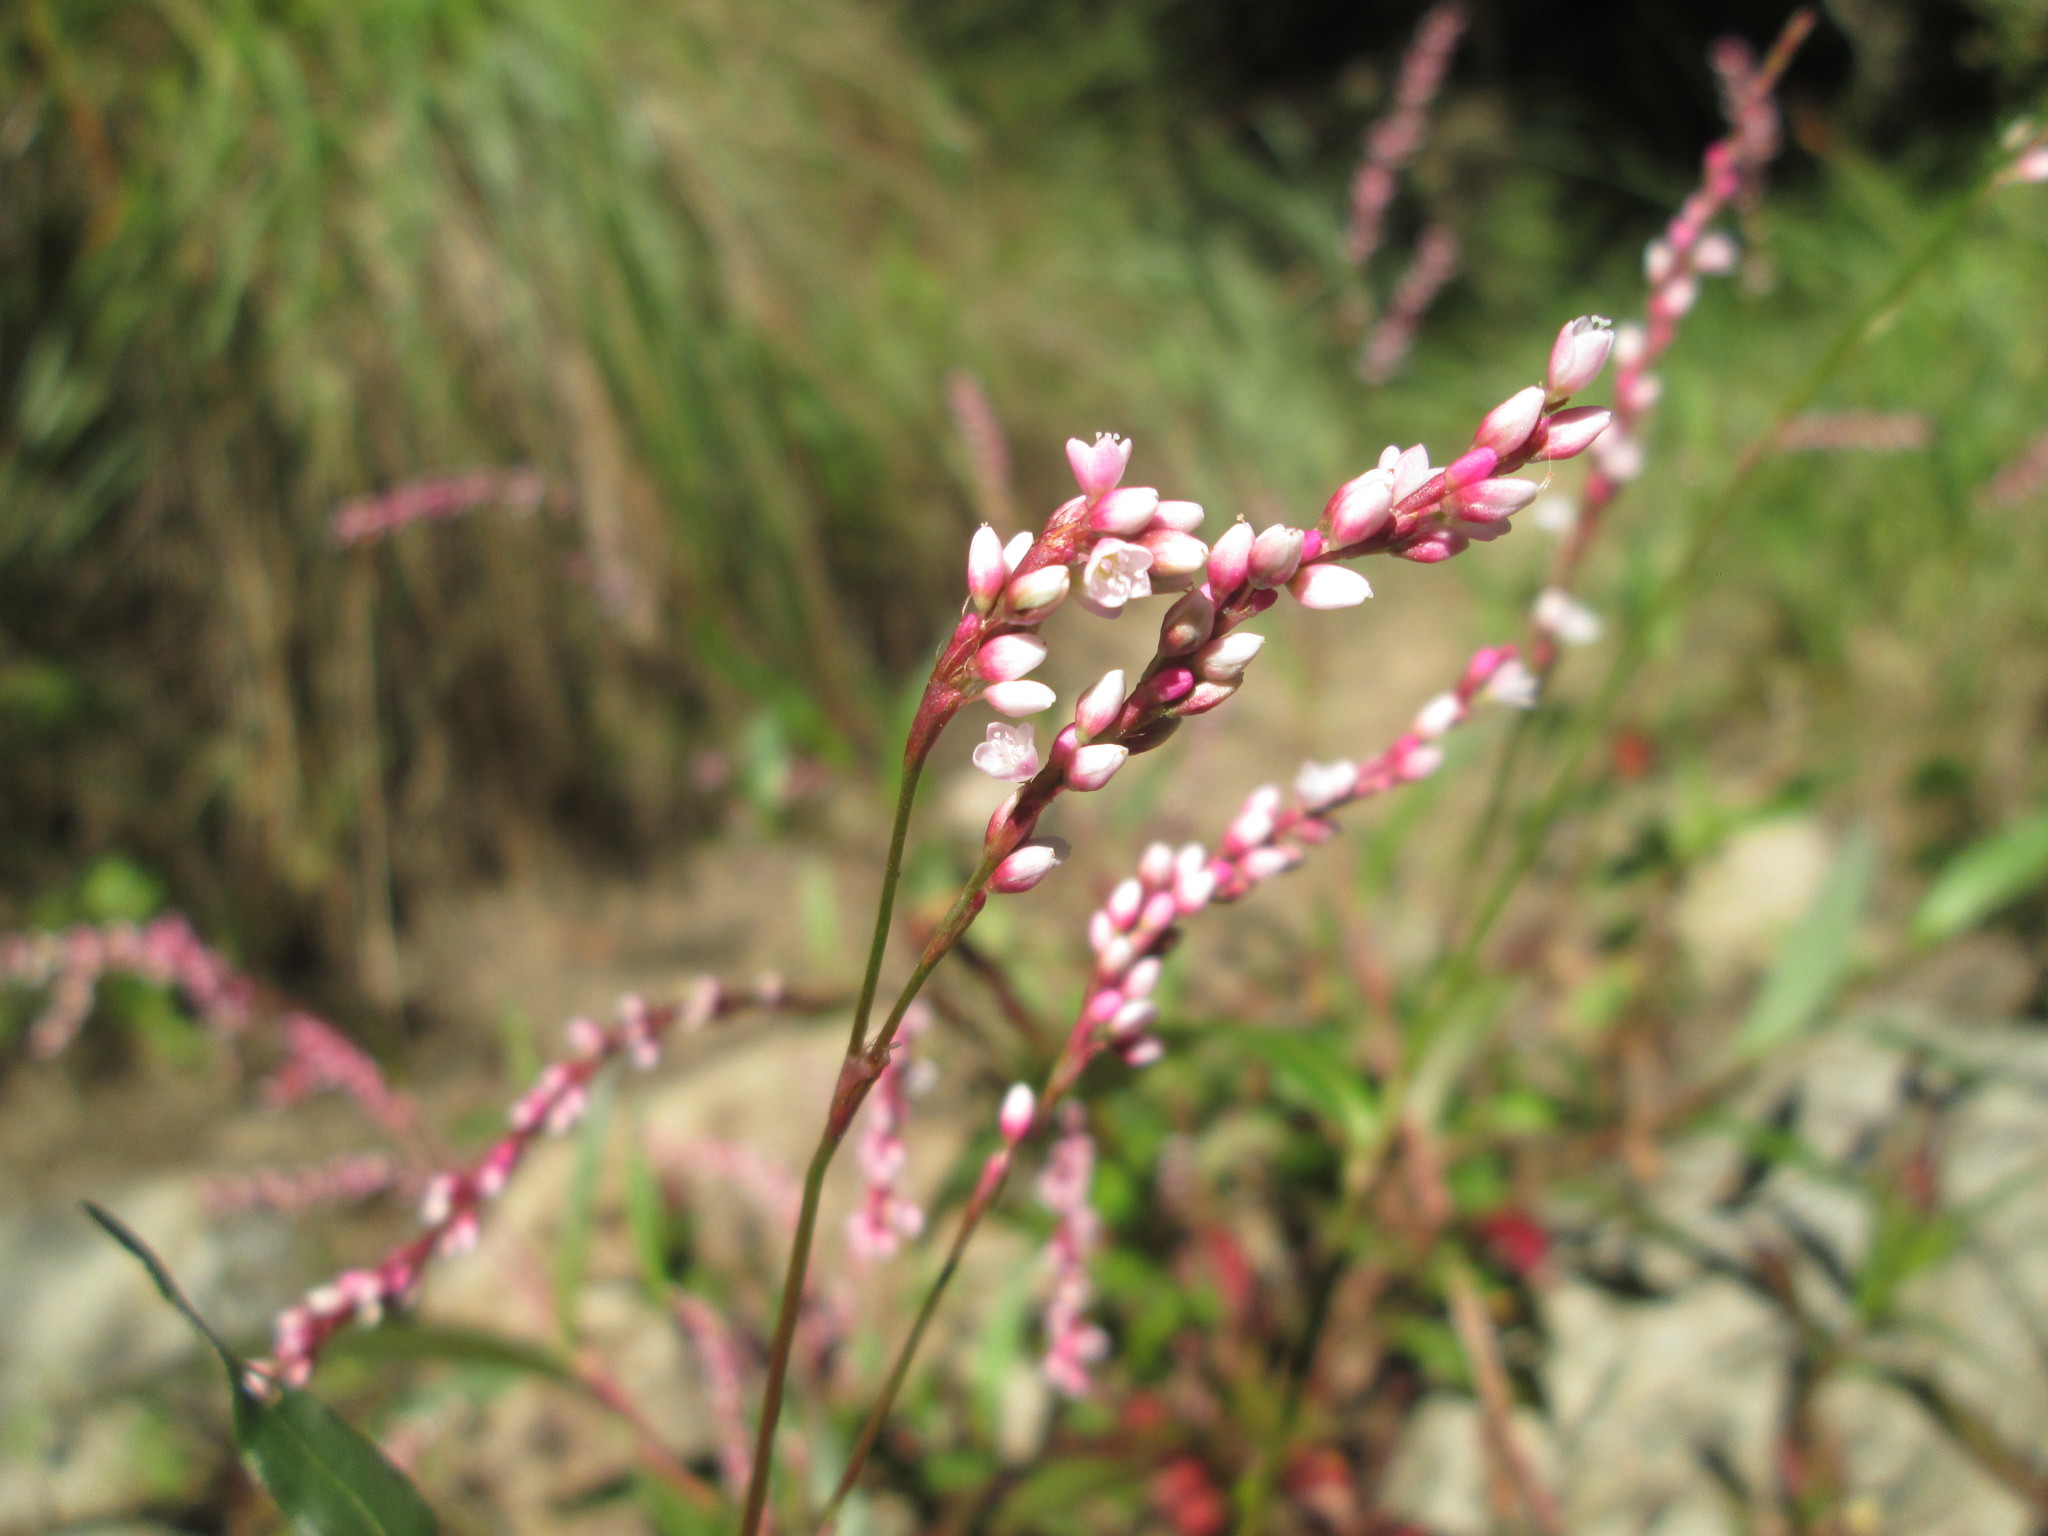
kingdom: Plantae
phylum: Tracheophyta
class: Magnoliopsida
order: Caryophyllales
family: Polygonaceae
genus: Persicaria
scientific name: Persicaria decipiens
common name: Willow-weed
